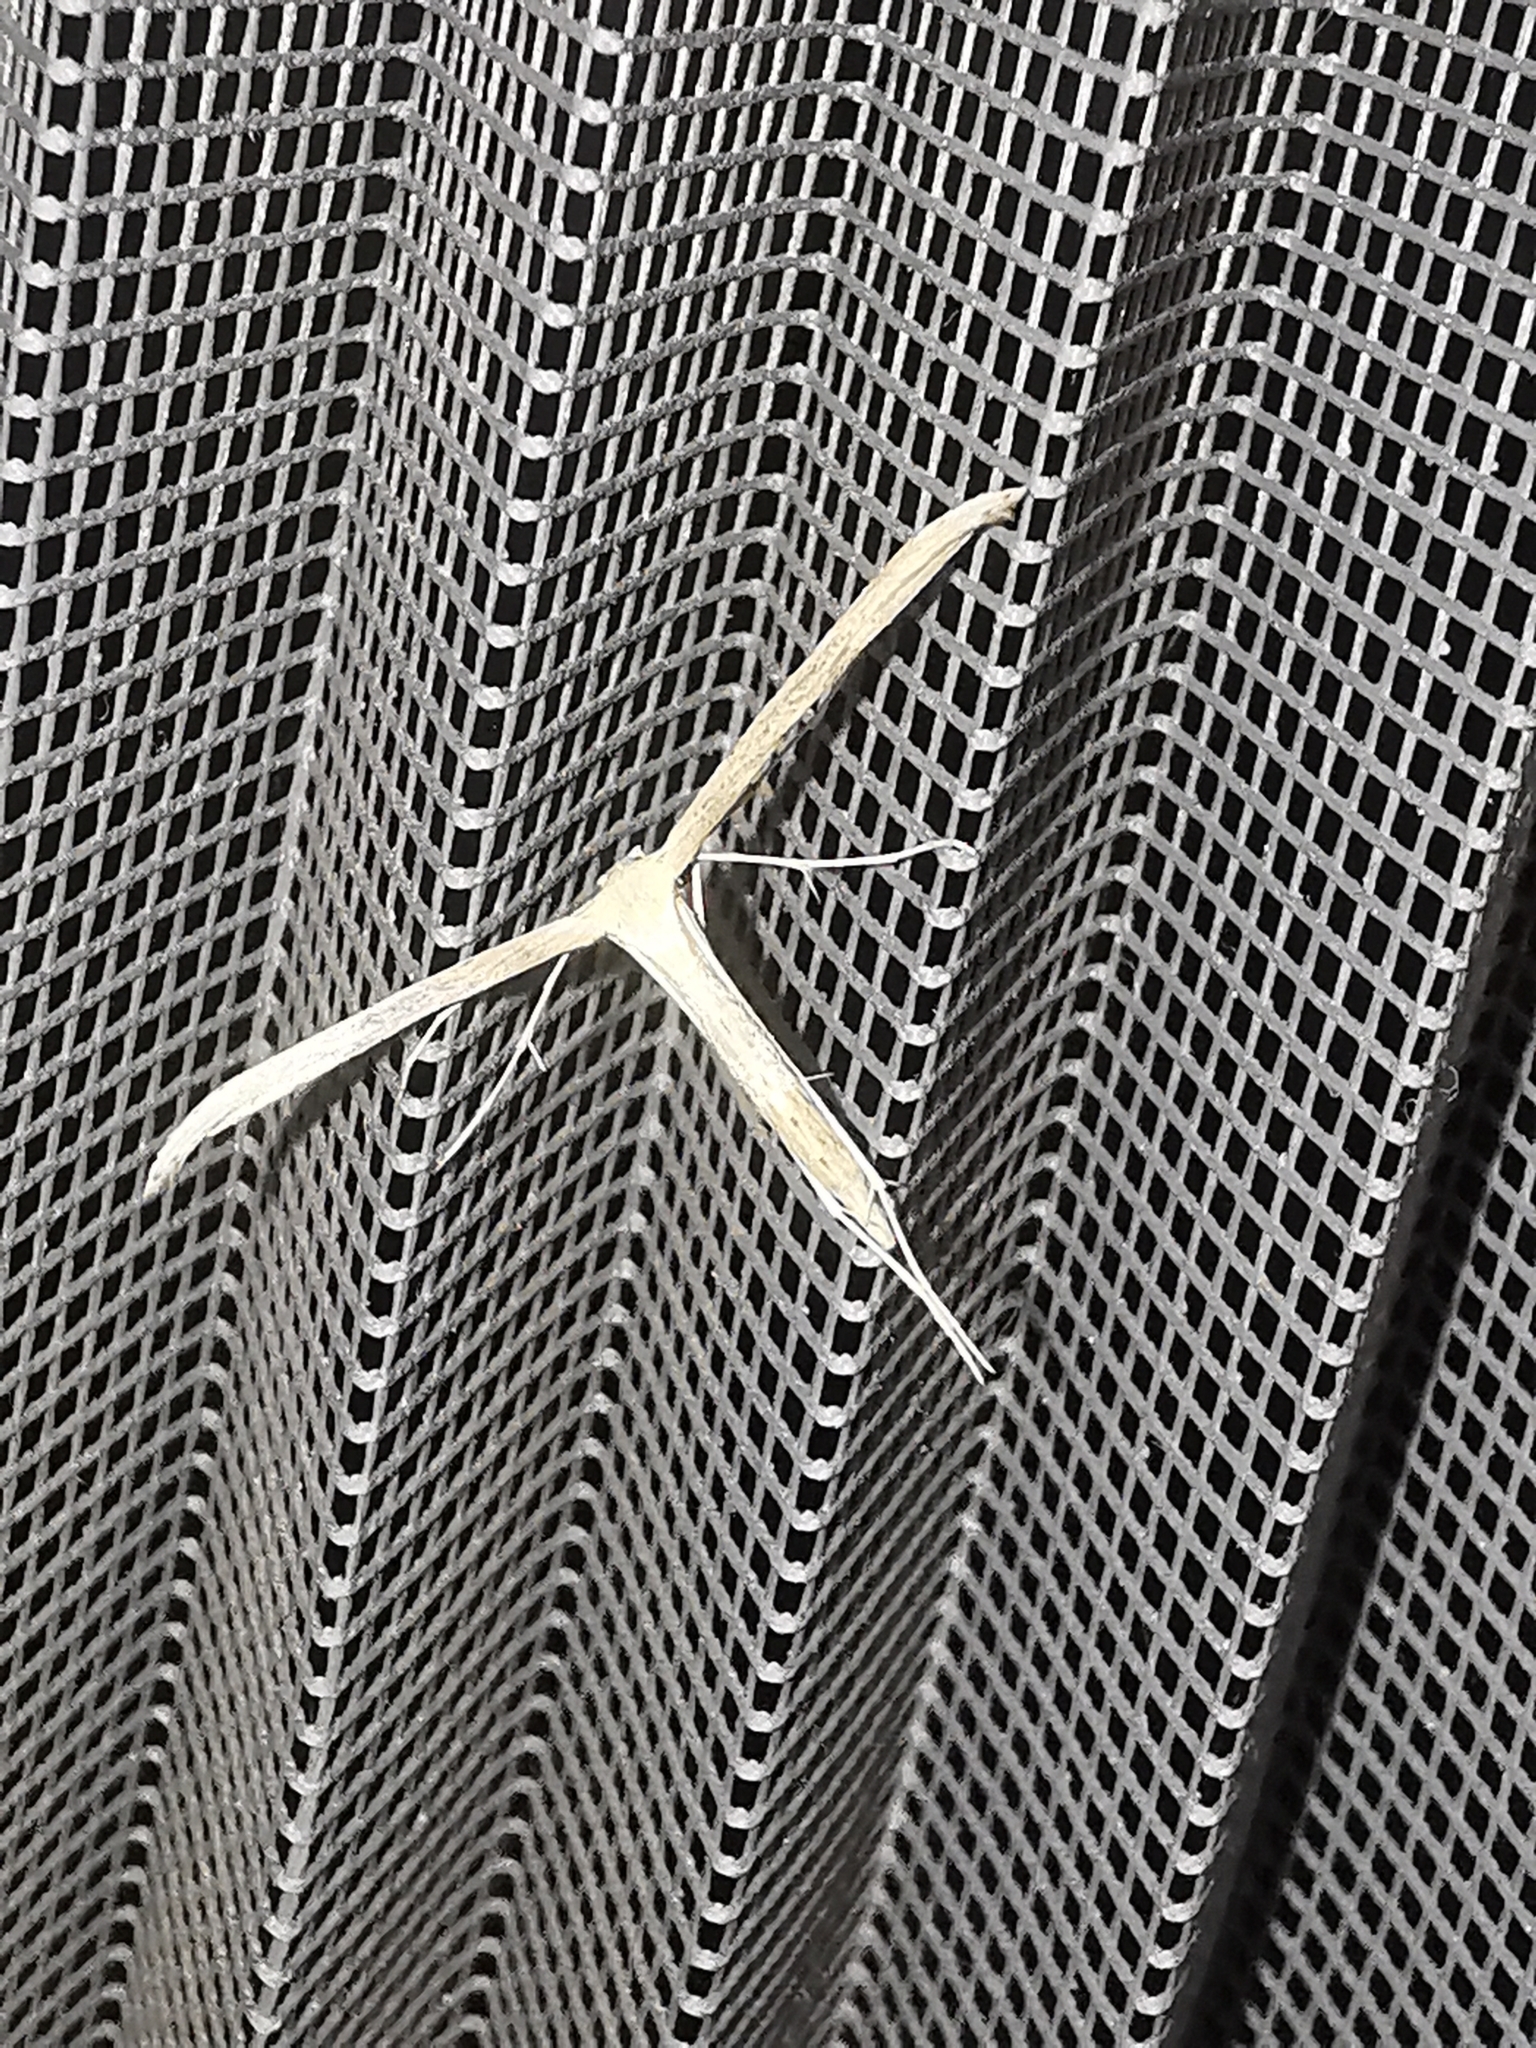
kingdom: Animalia
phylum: Arthropoda
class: Insecta
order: Lepidoptera
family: Pterophoridae
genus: Emmelina
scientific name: Emmelina monodactyla
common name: Common plume
